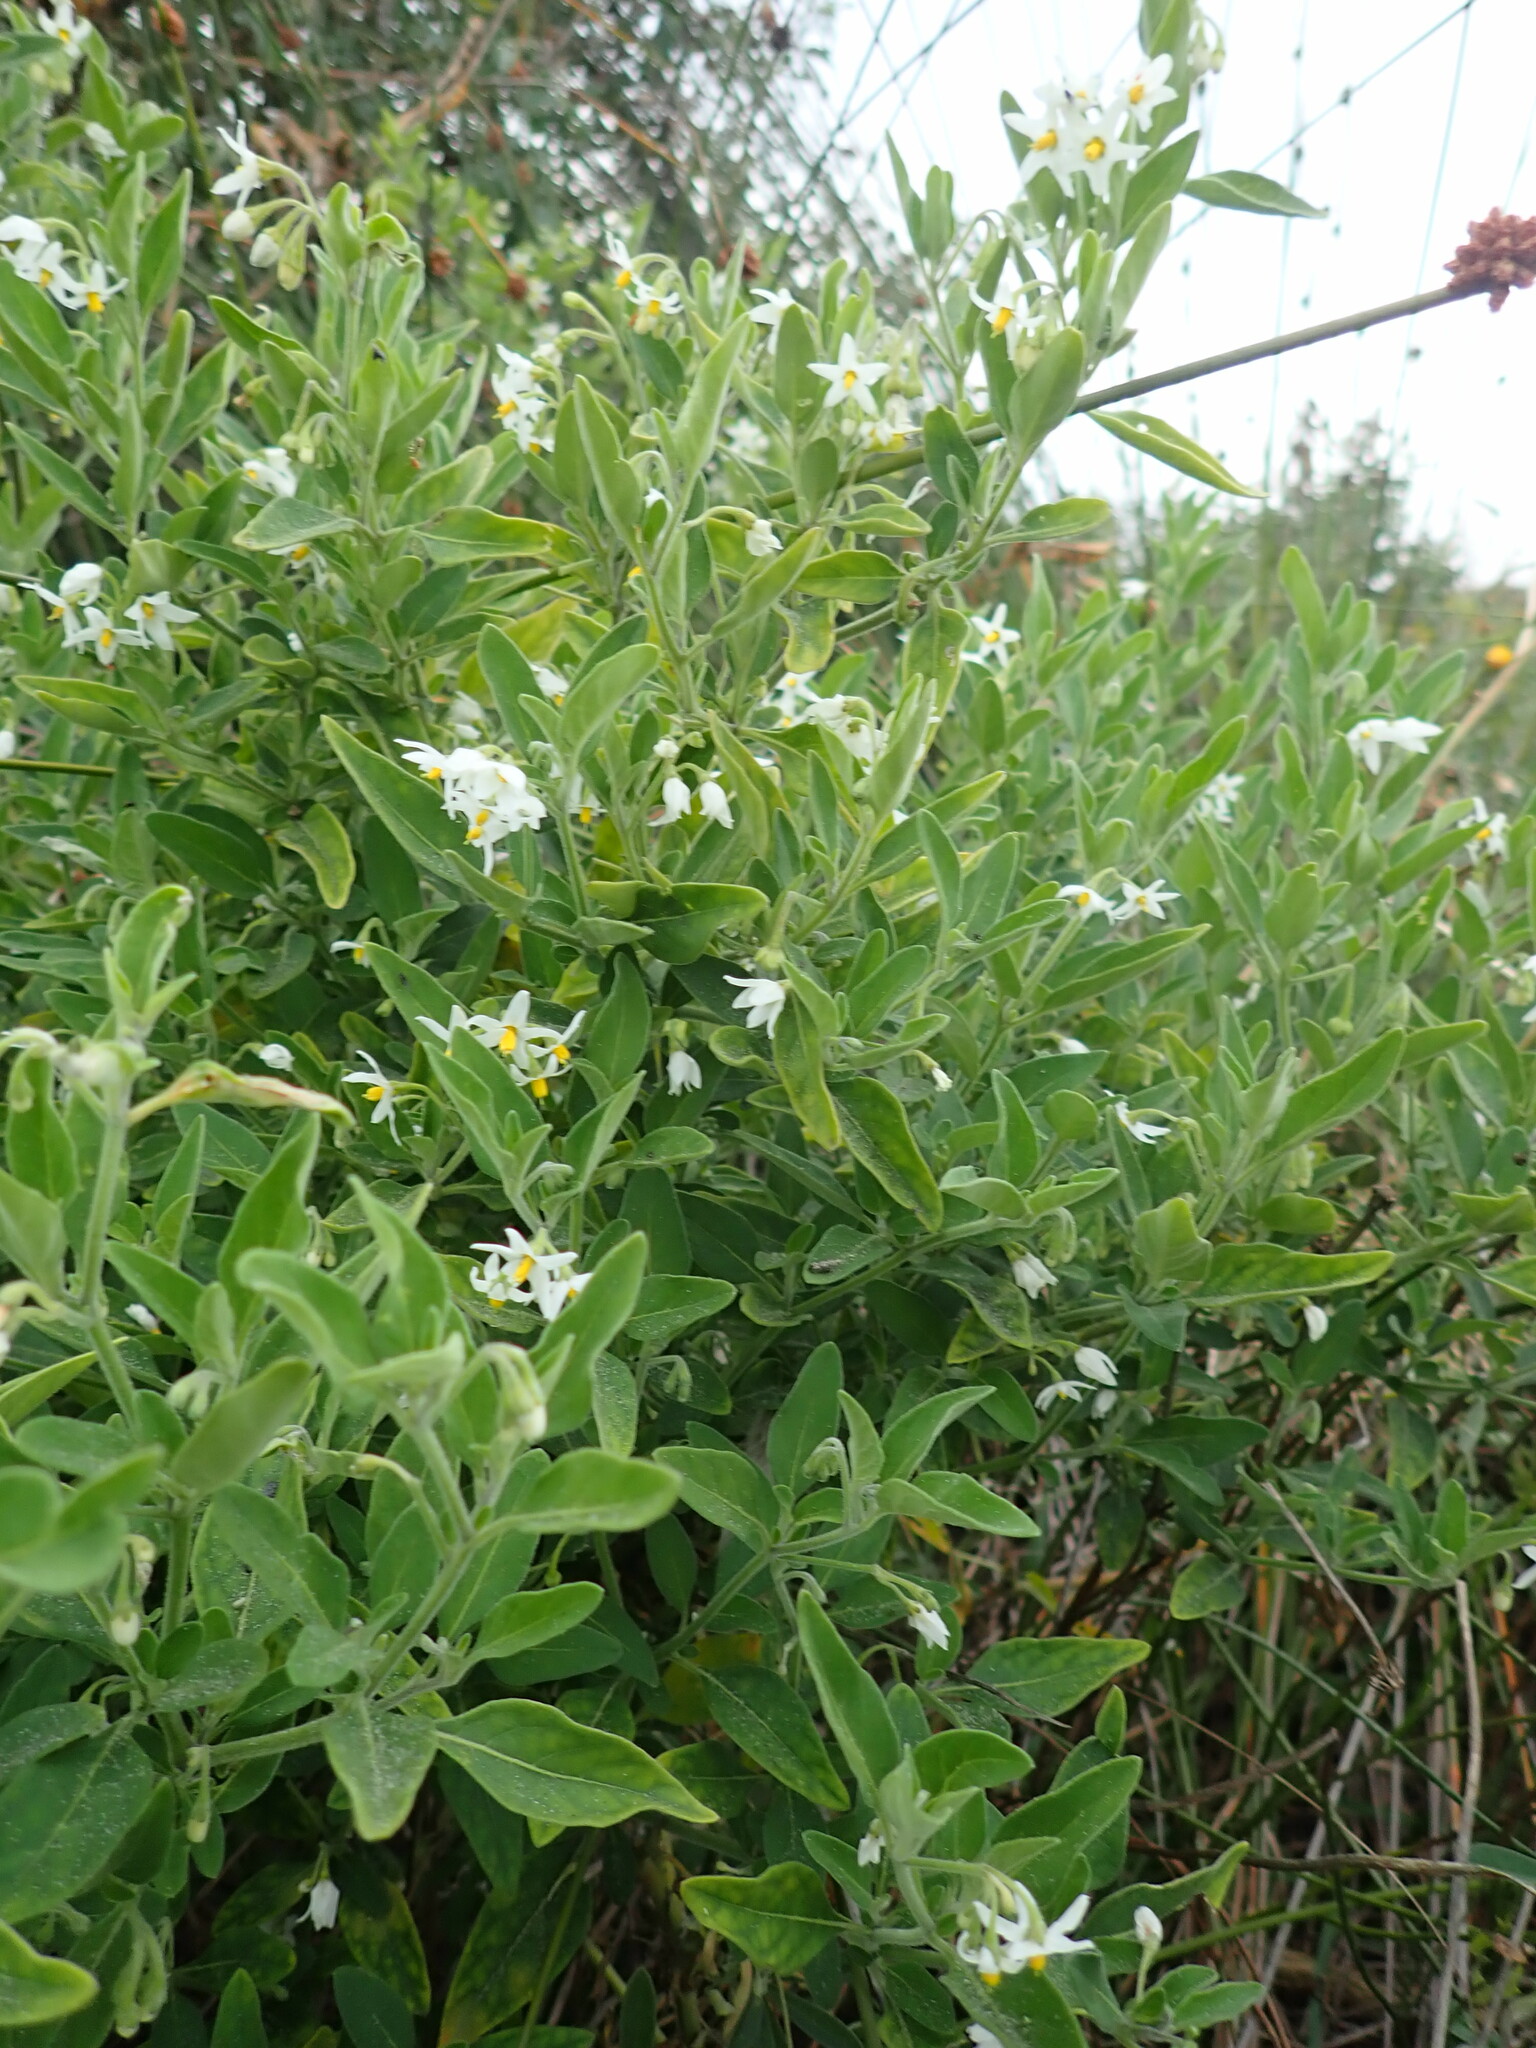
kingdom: Plantae
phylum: Tracheophyta
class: Magnoliopsida
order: Solanales
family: Solanaceae
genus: Solanum
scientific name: Solanum chenopodioides
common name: Tall nightshade
